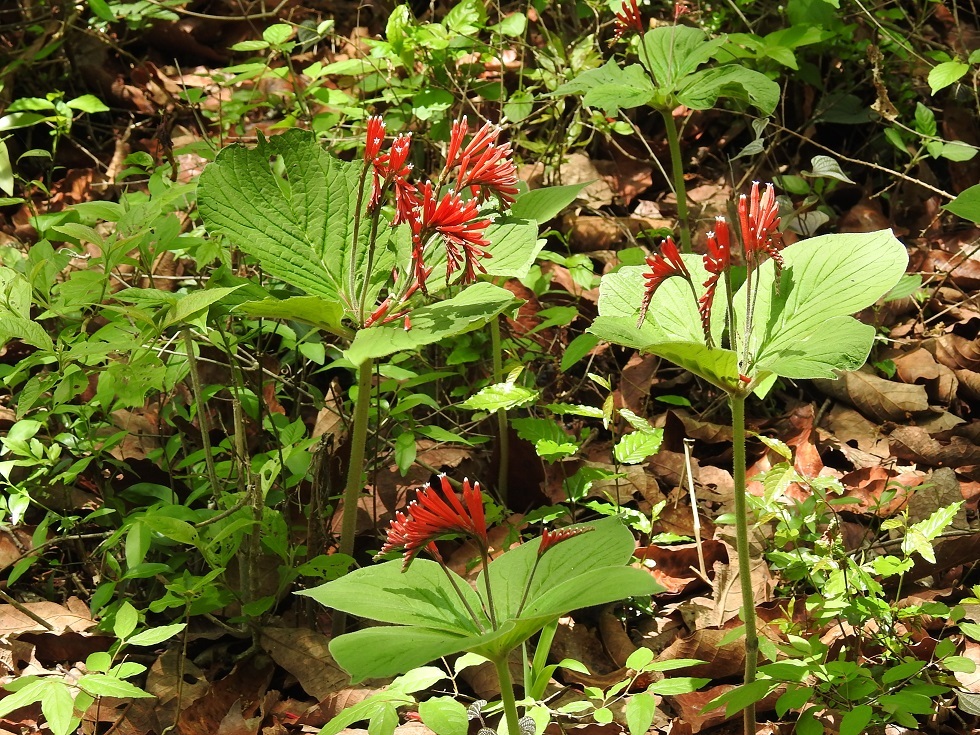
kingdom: Plantae
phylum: Tracheophyta
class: Magnoliopsida
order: Gentianales
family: Loganiaceae
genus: Spigelia
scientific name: Spigelia splendens
